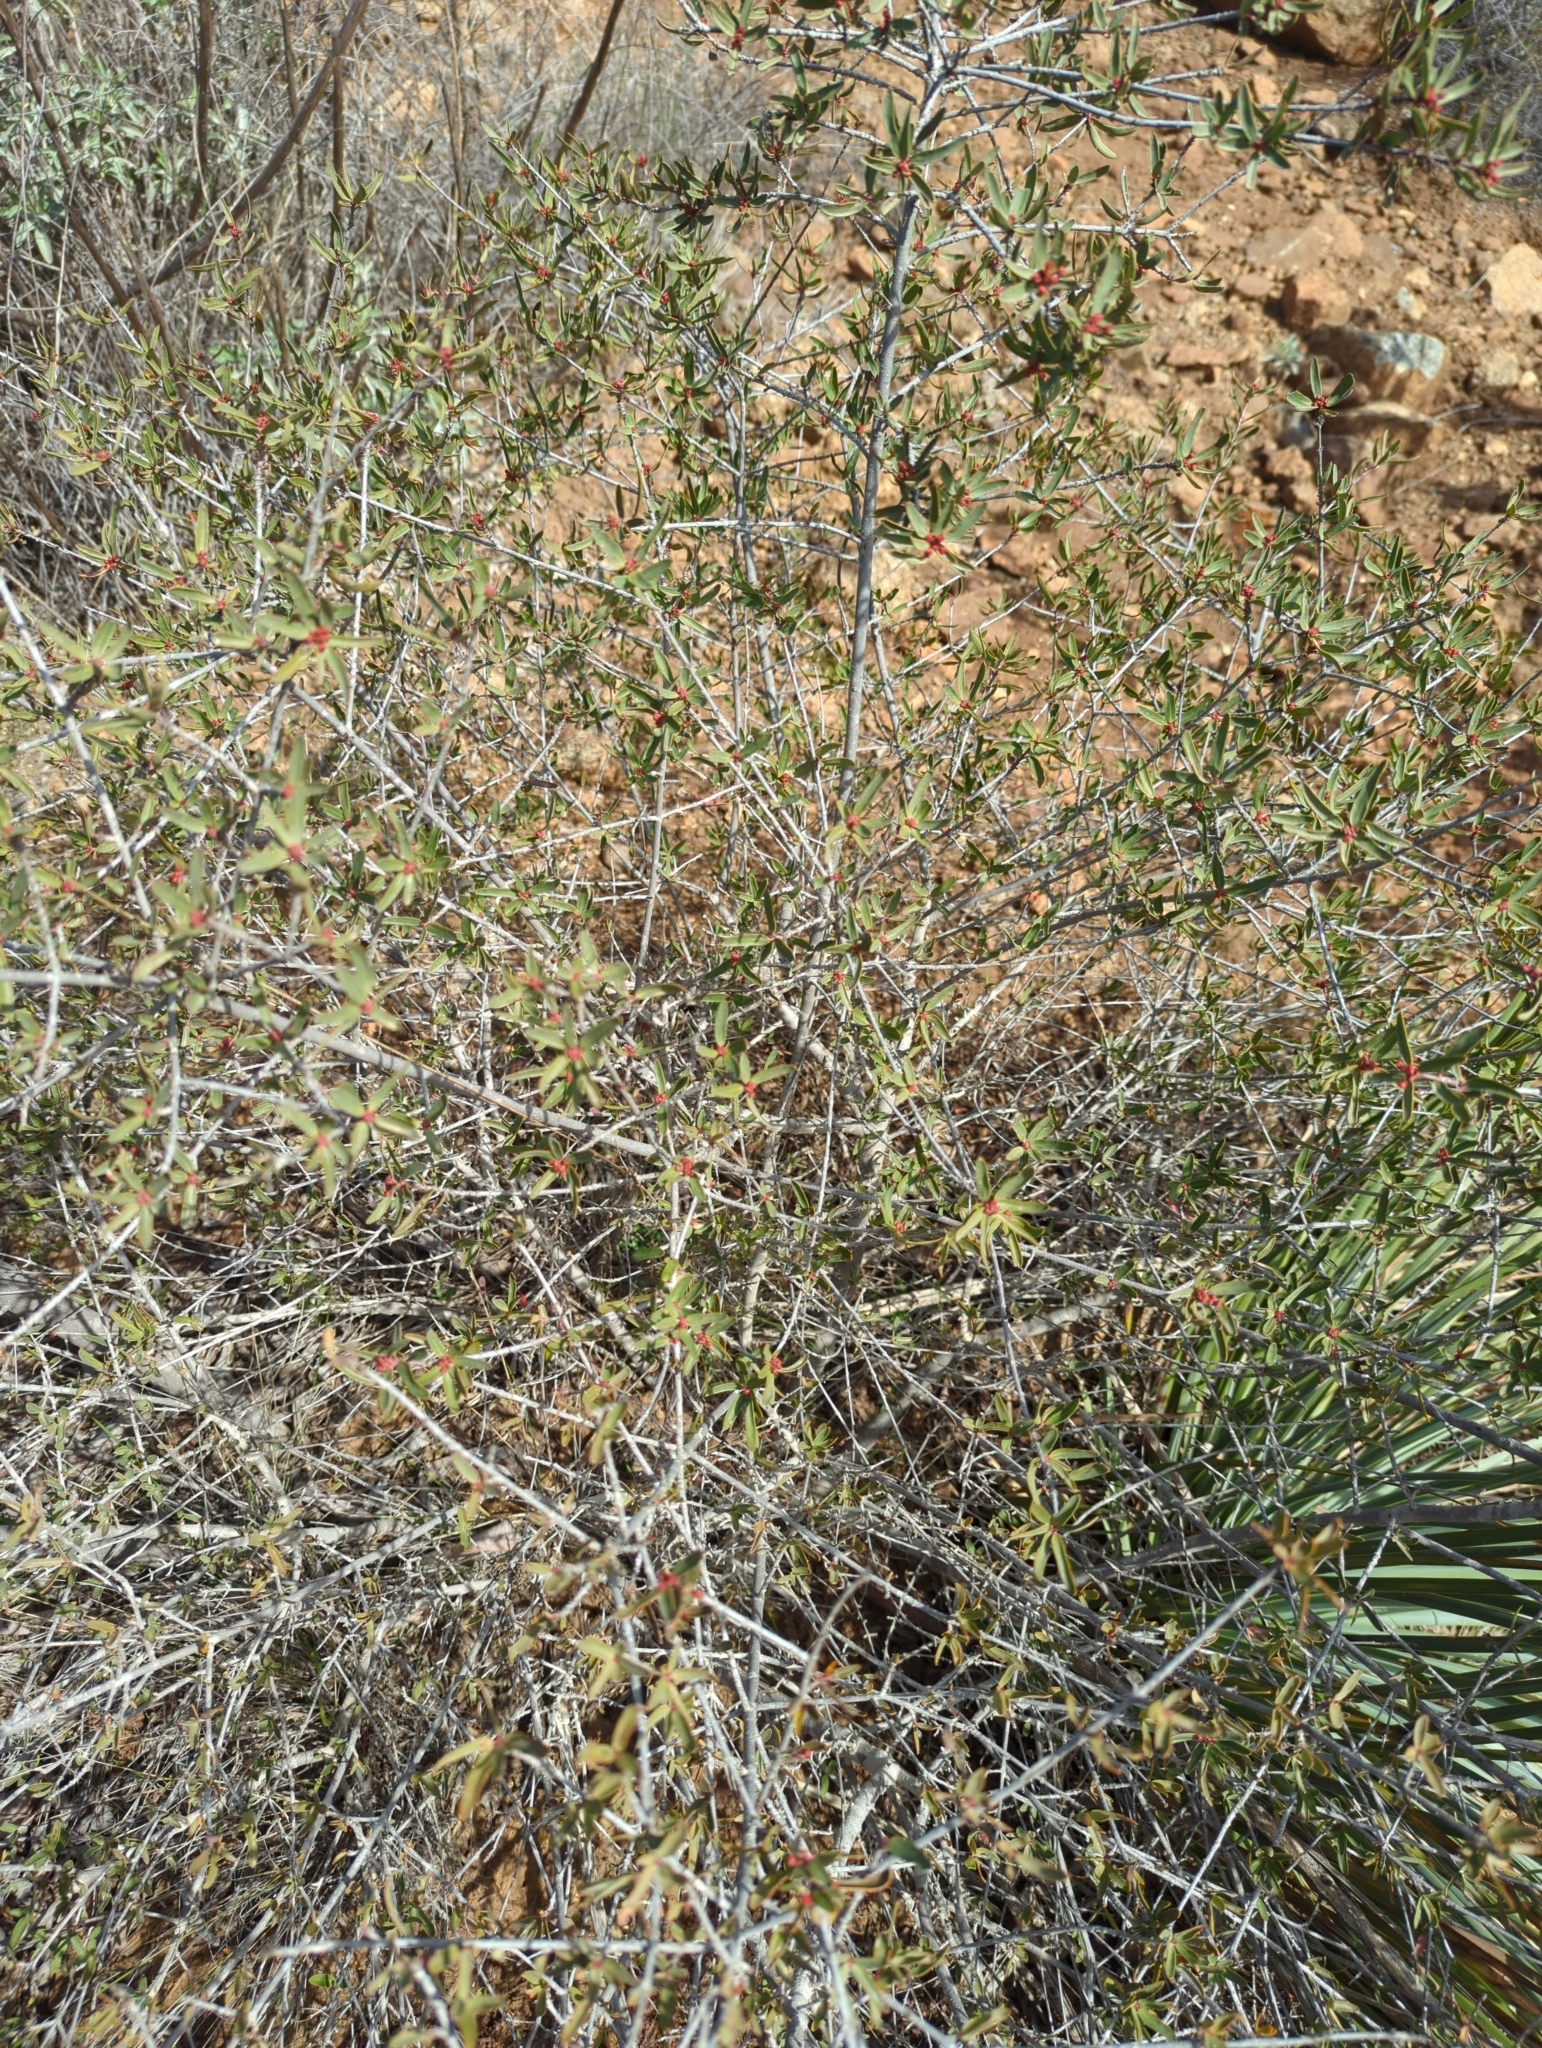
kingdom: Plantae
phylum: Tracheophyta
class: Magnoliopsida
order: Malpighiales
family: Picrodendraceae
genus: Tetracoccus
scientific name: Tetracoccus dioicus
